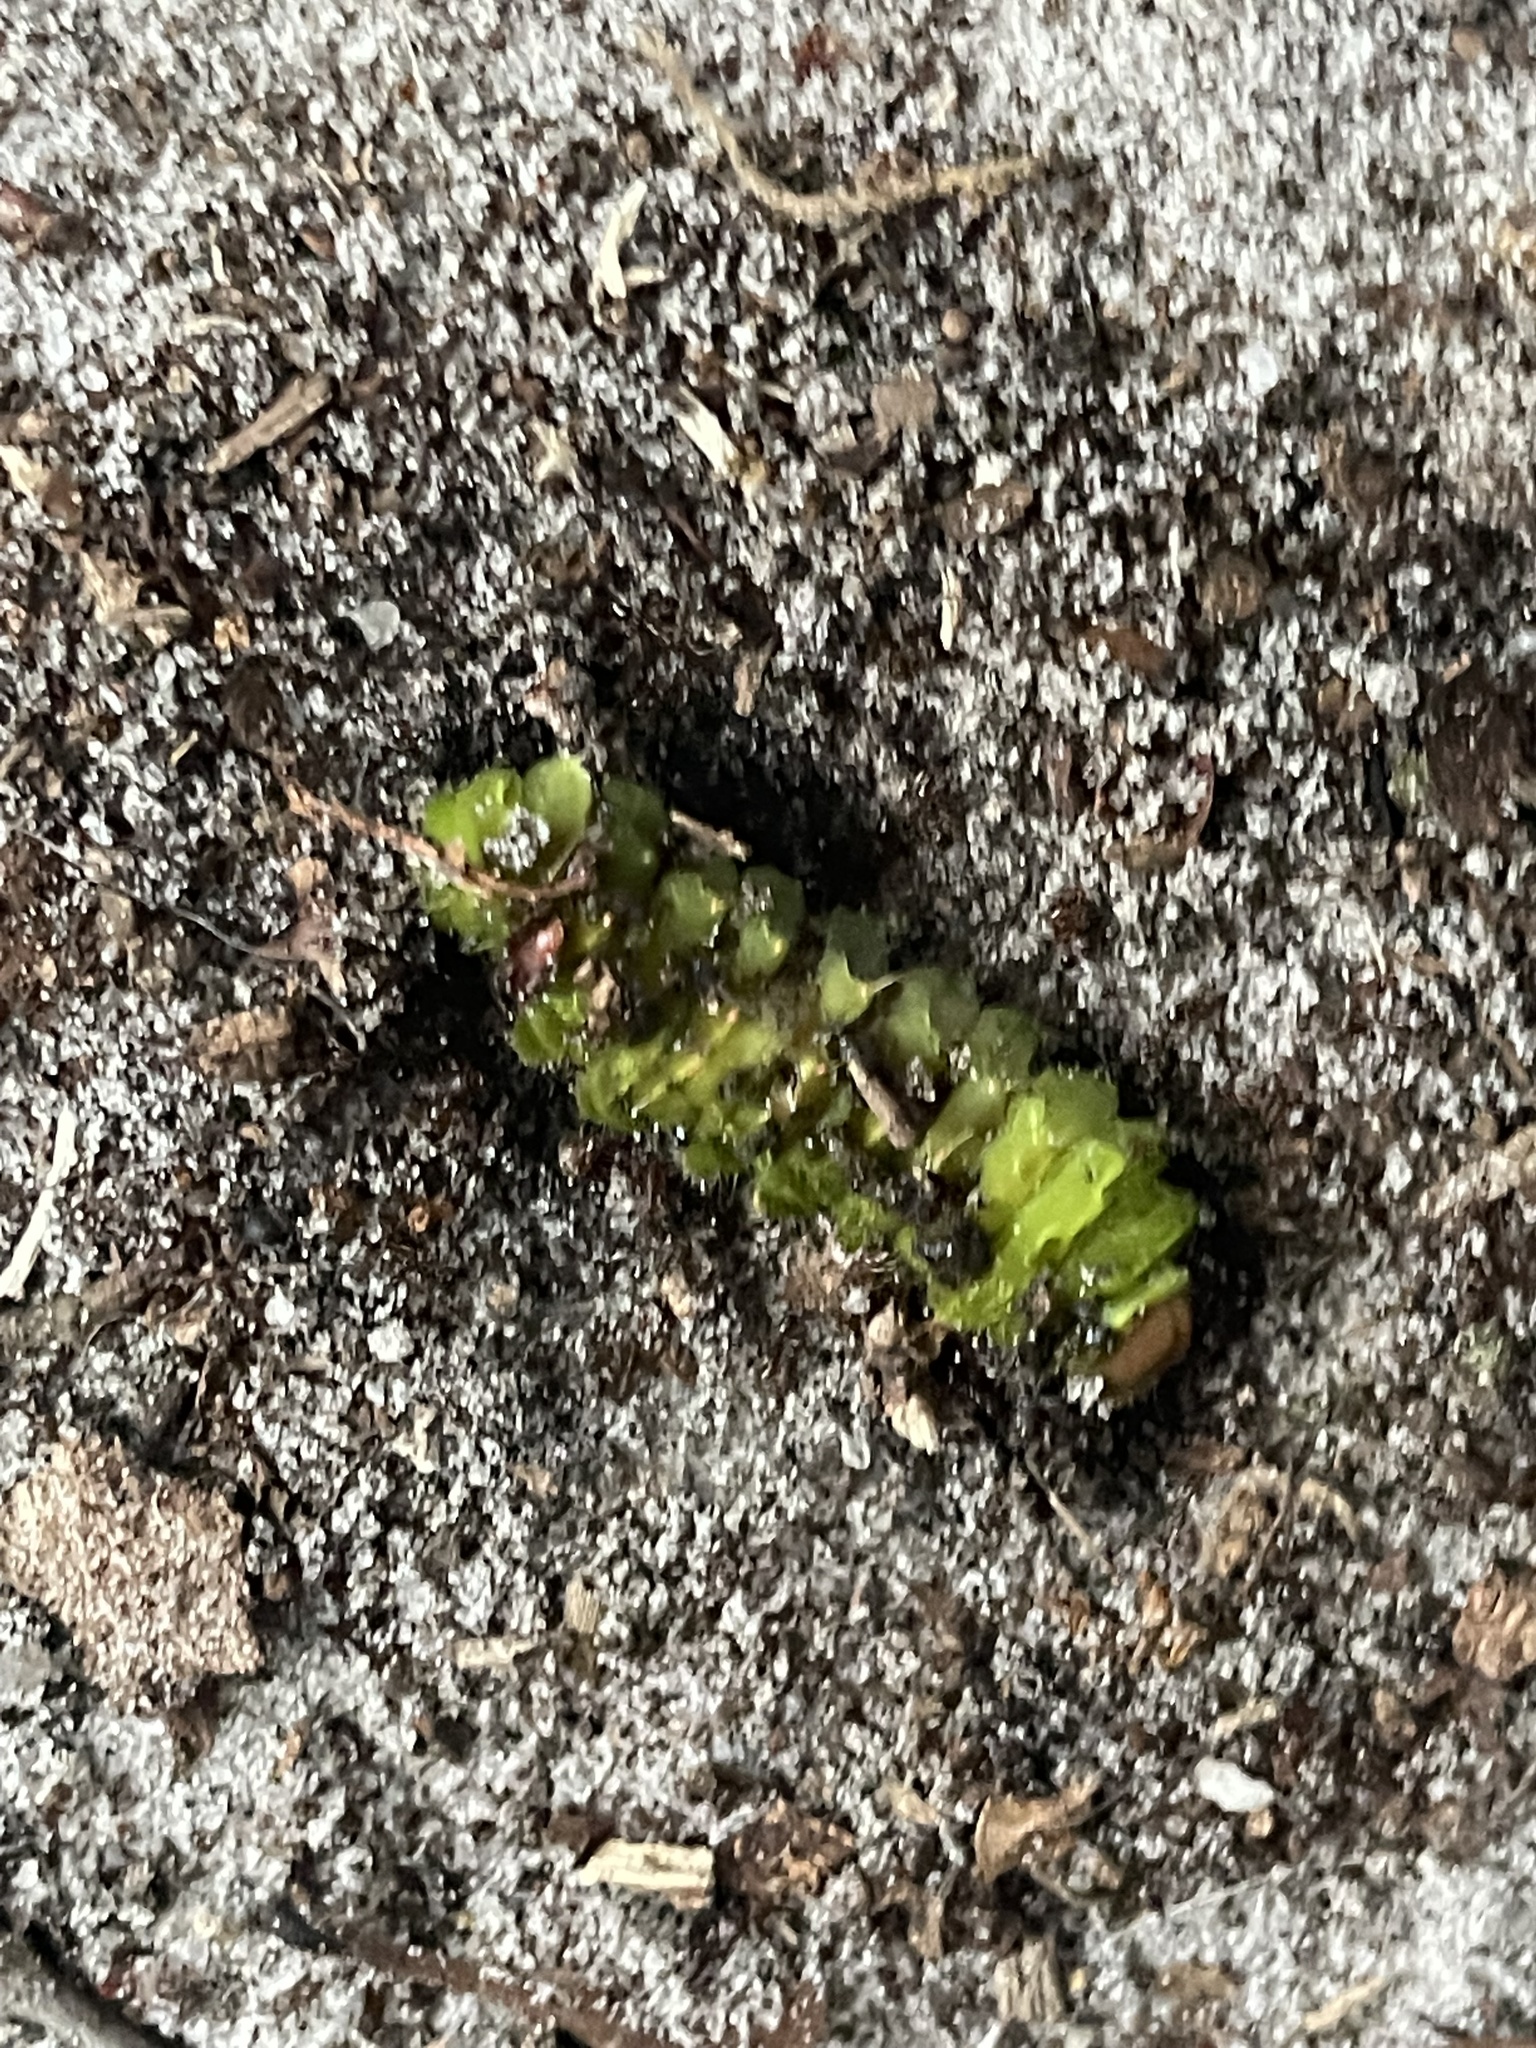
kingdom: Animalia
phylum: Arthropoda
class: Insecta
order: Lepidoptera
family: Saturniidae
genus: Antheraea
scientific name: Antheraea polyphemus
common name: Polyphemus moth
